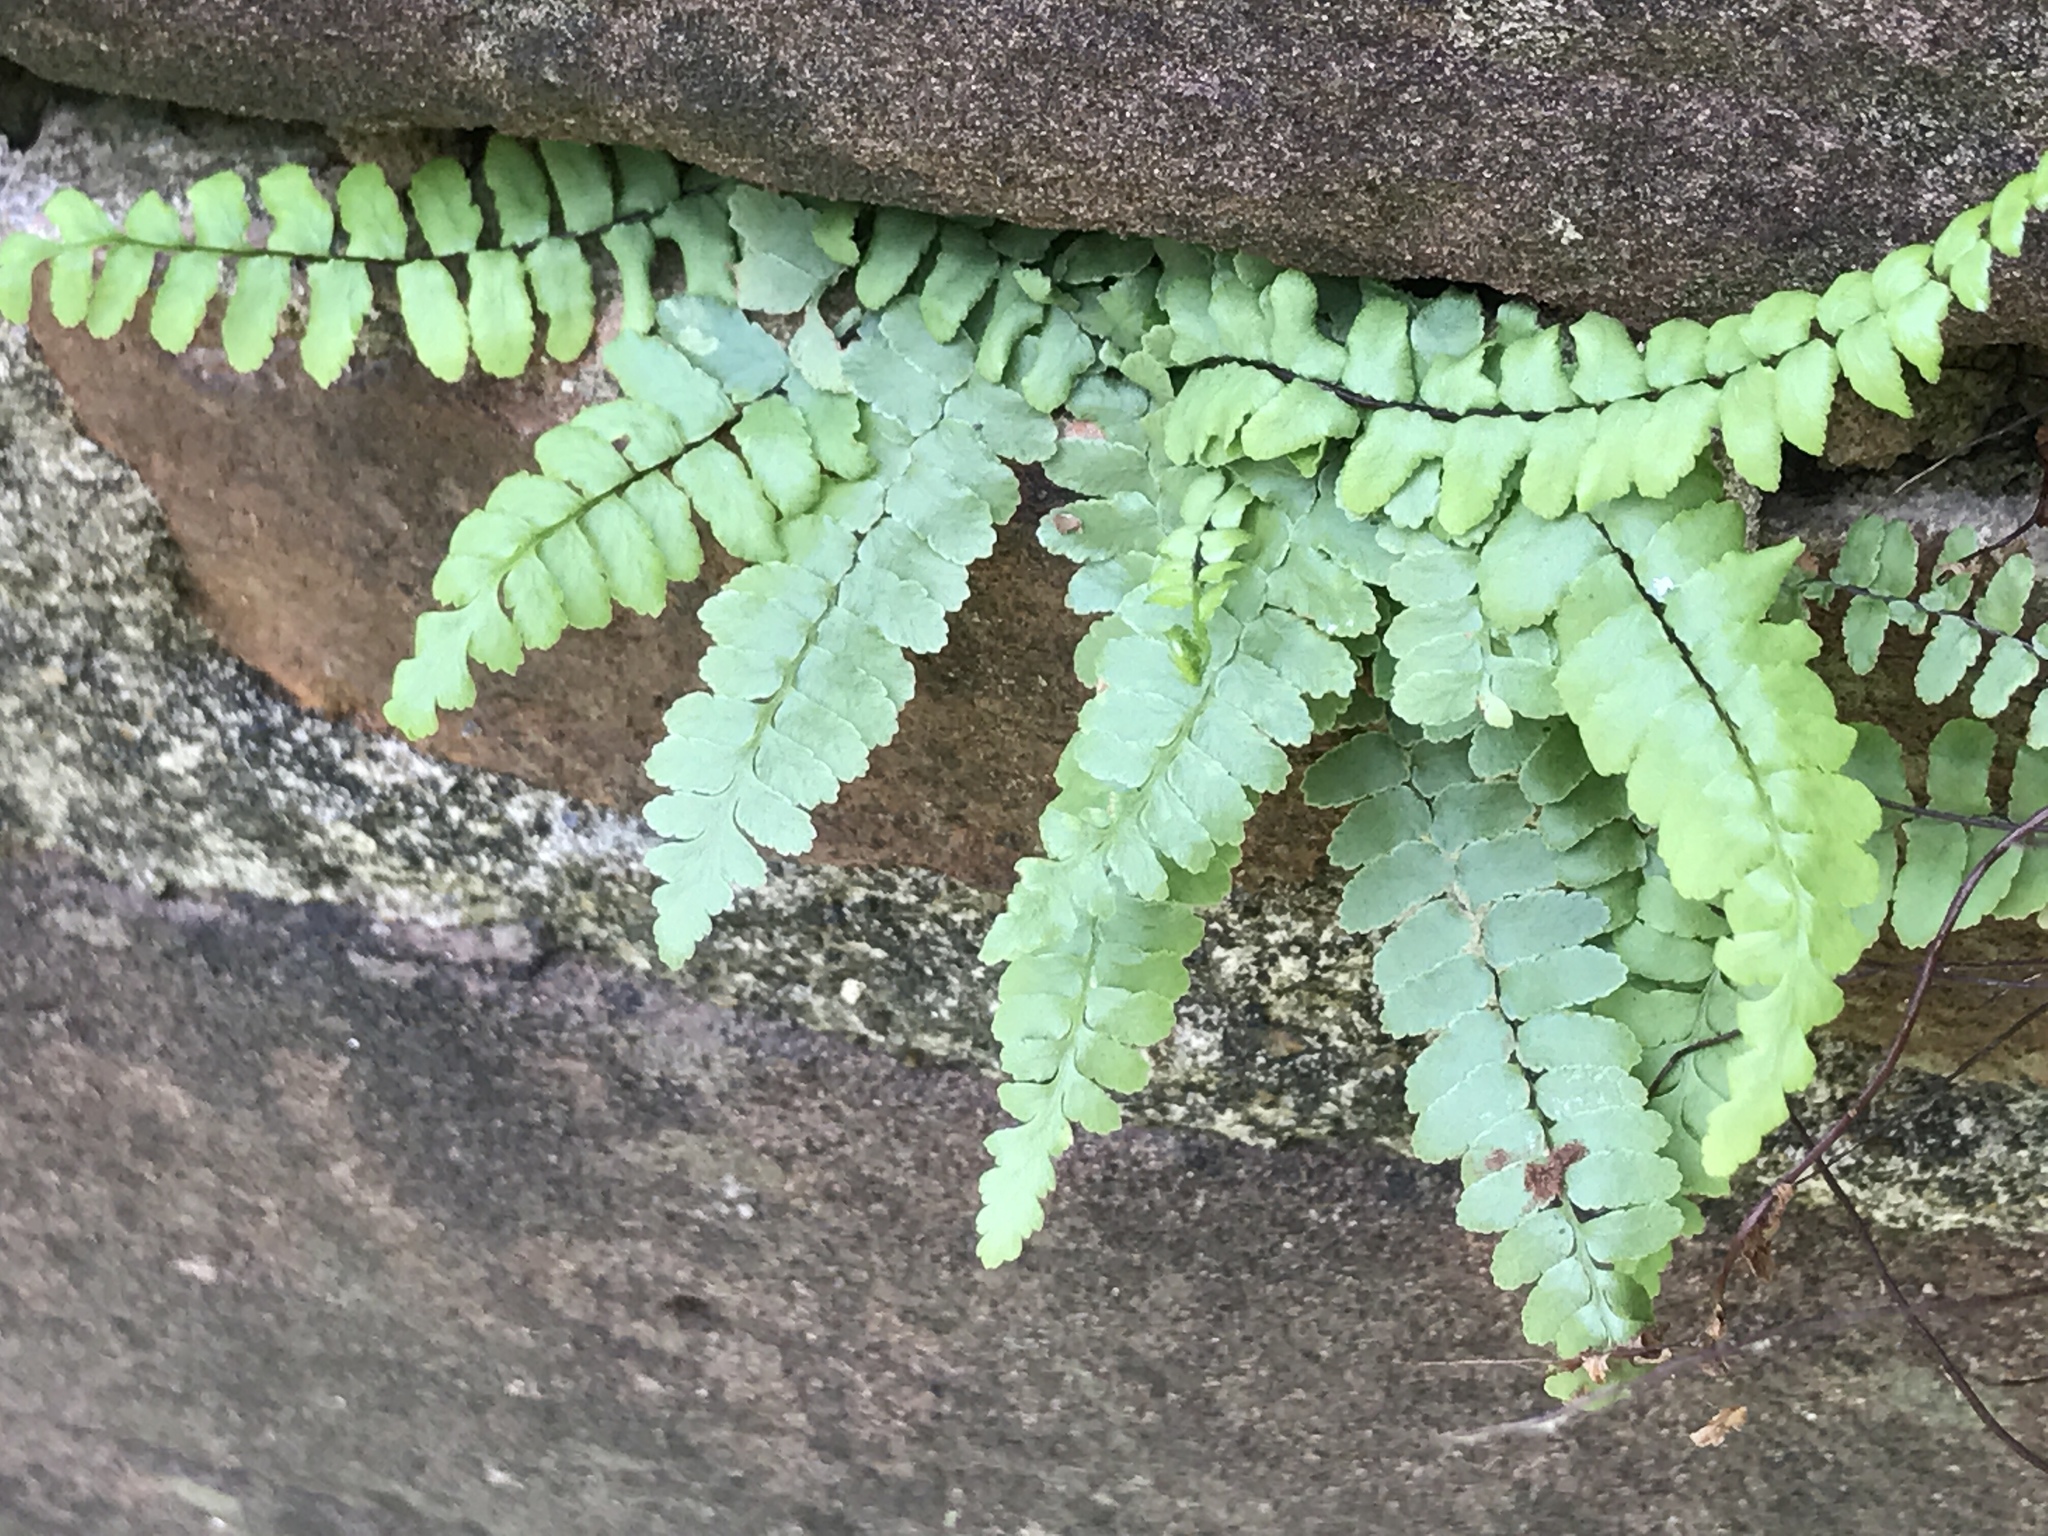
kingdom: Plantae
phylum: Tracheophyta
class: Polypodiopsida
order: Polypodiales
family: Aspleniaceae
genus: Asplenium
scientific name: Asplenium platyneuron
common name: Ebony spleenwort
